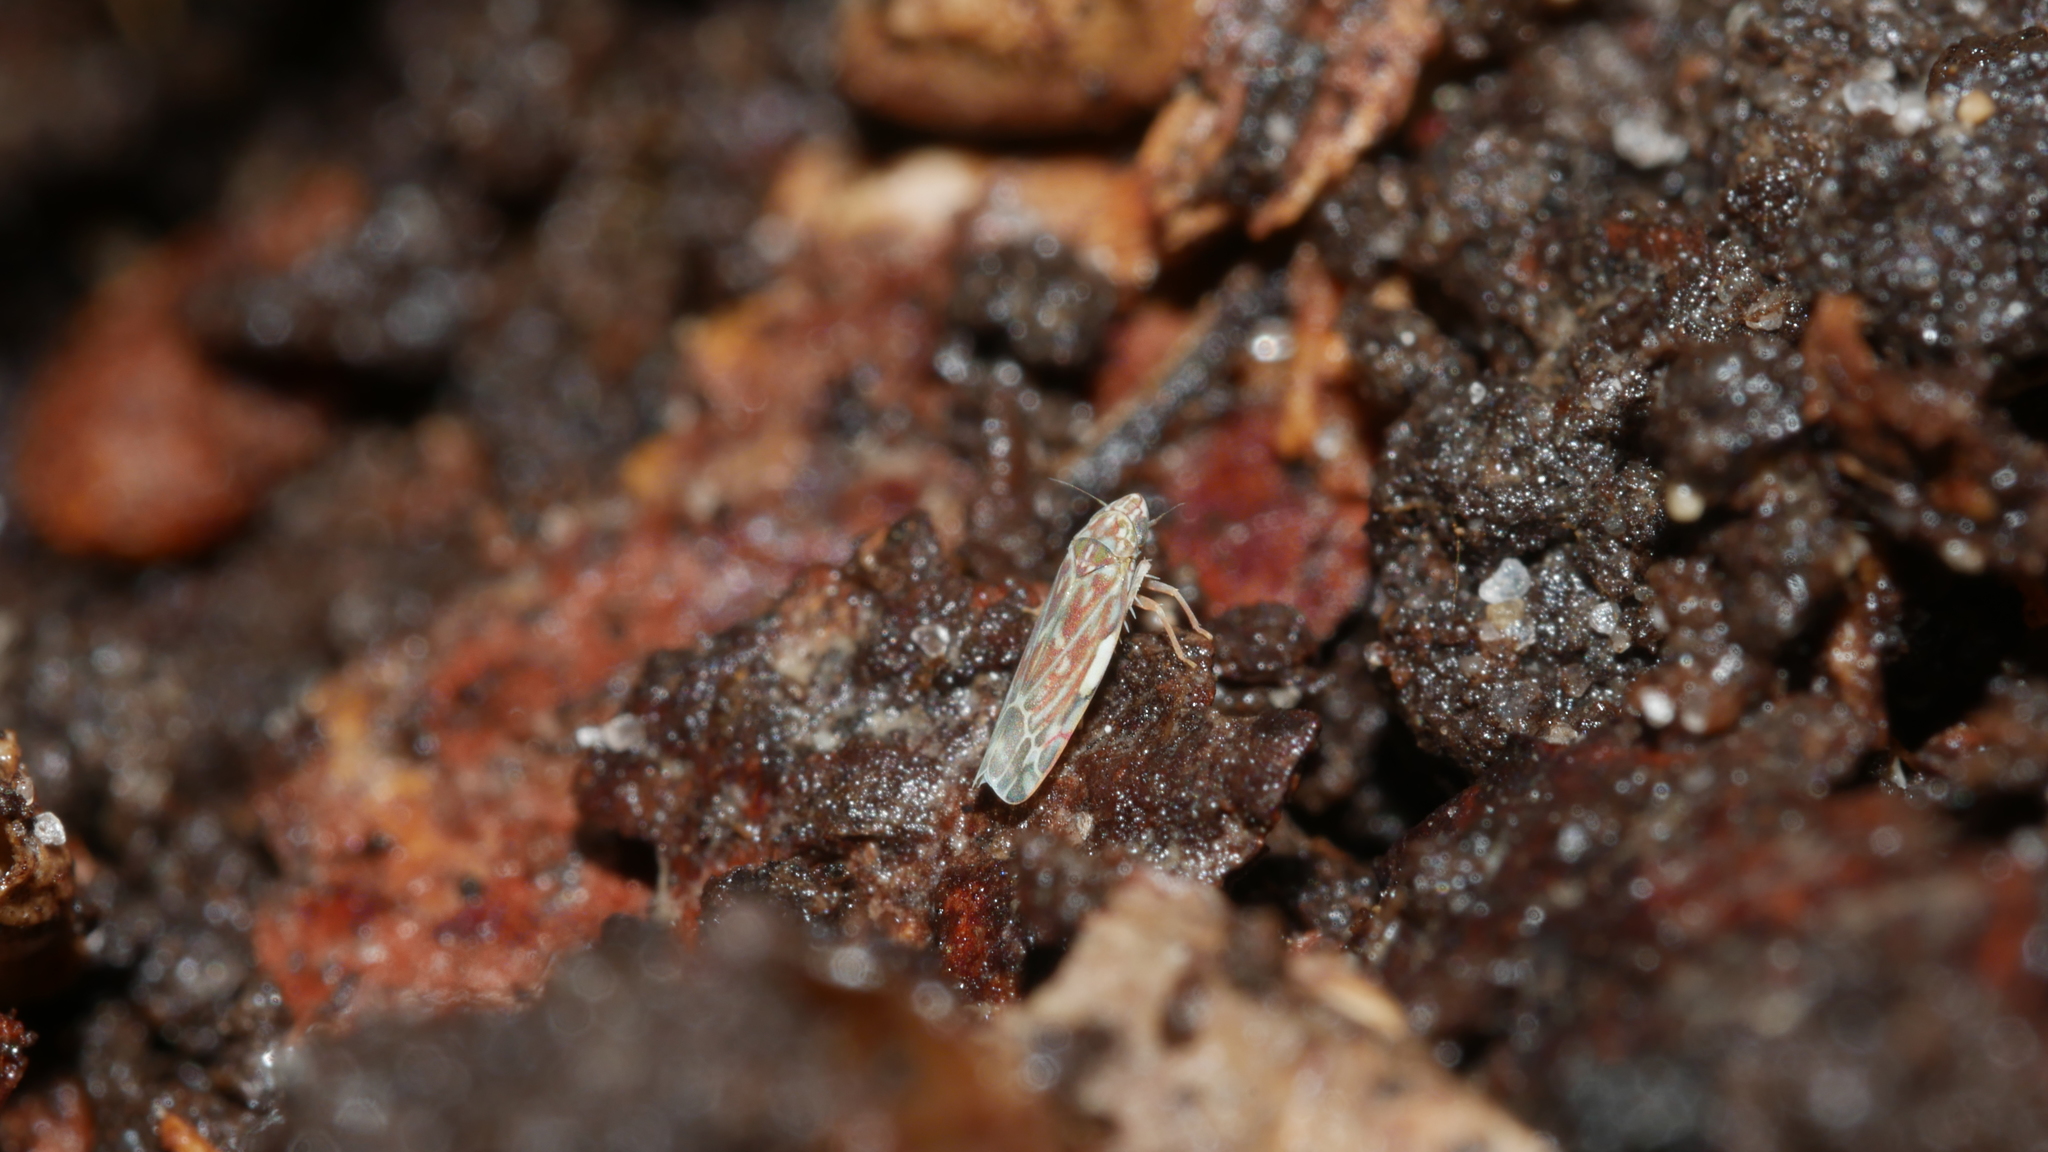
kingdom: Animalia
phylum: Arthropoda
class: Insecta
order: Hemiptera
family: Cicadellidae
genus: Erasmoneura
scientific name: Erasmoneura vulnerata
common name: The wounded leafhopper
